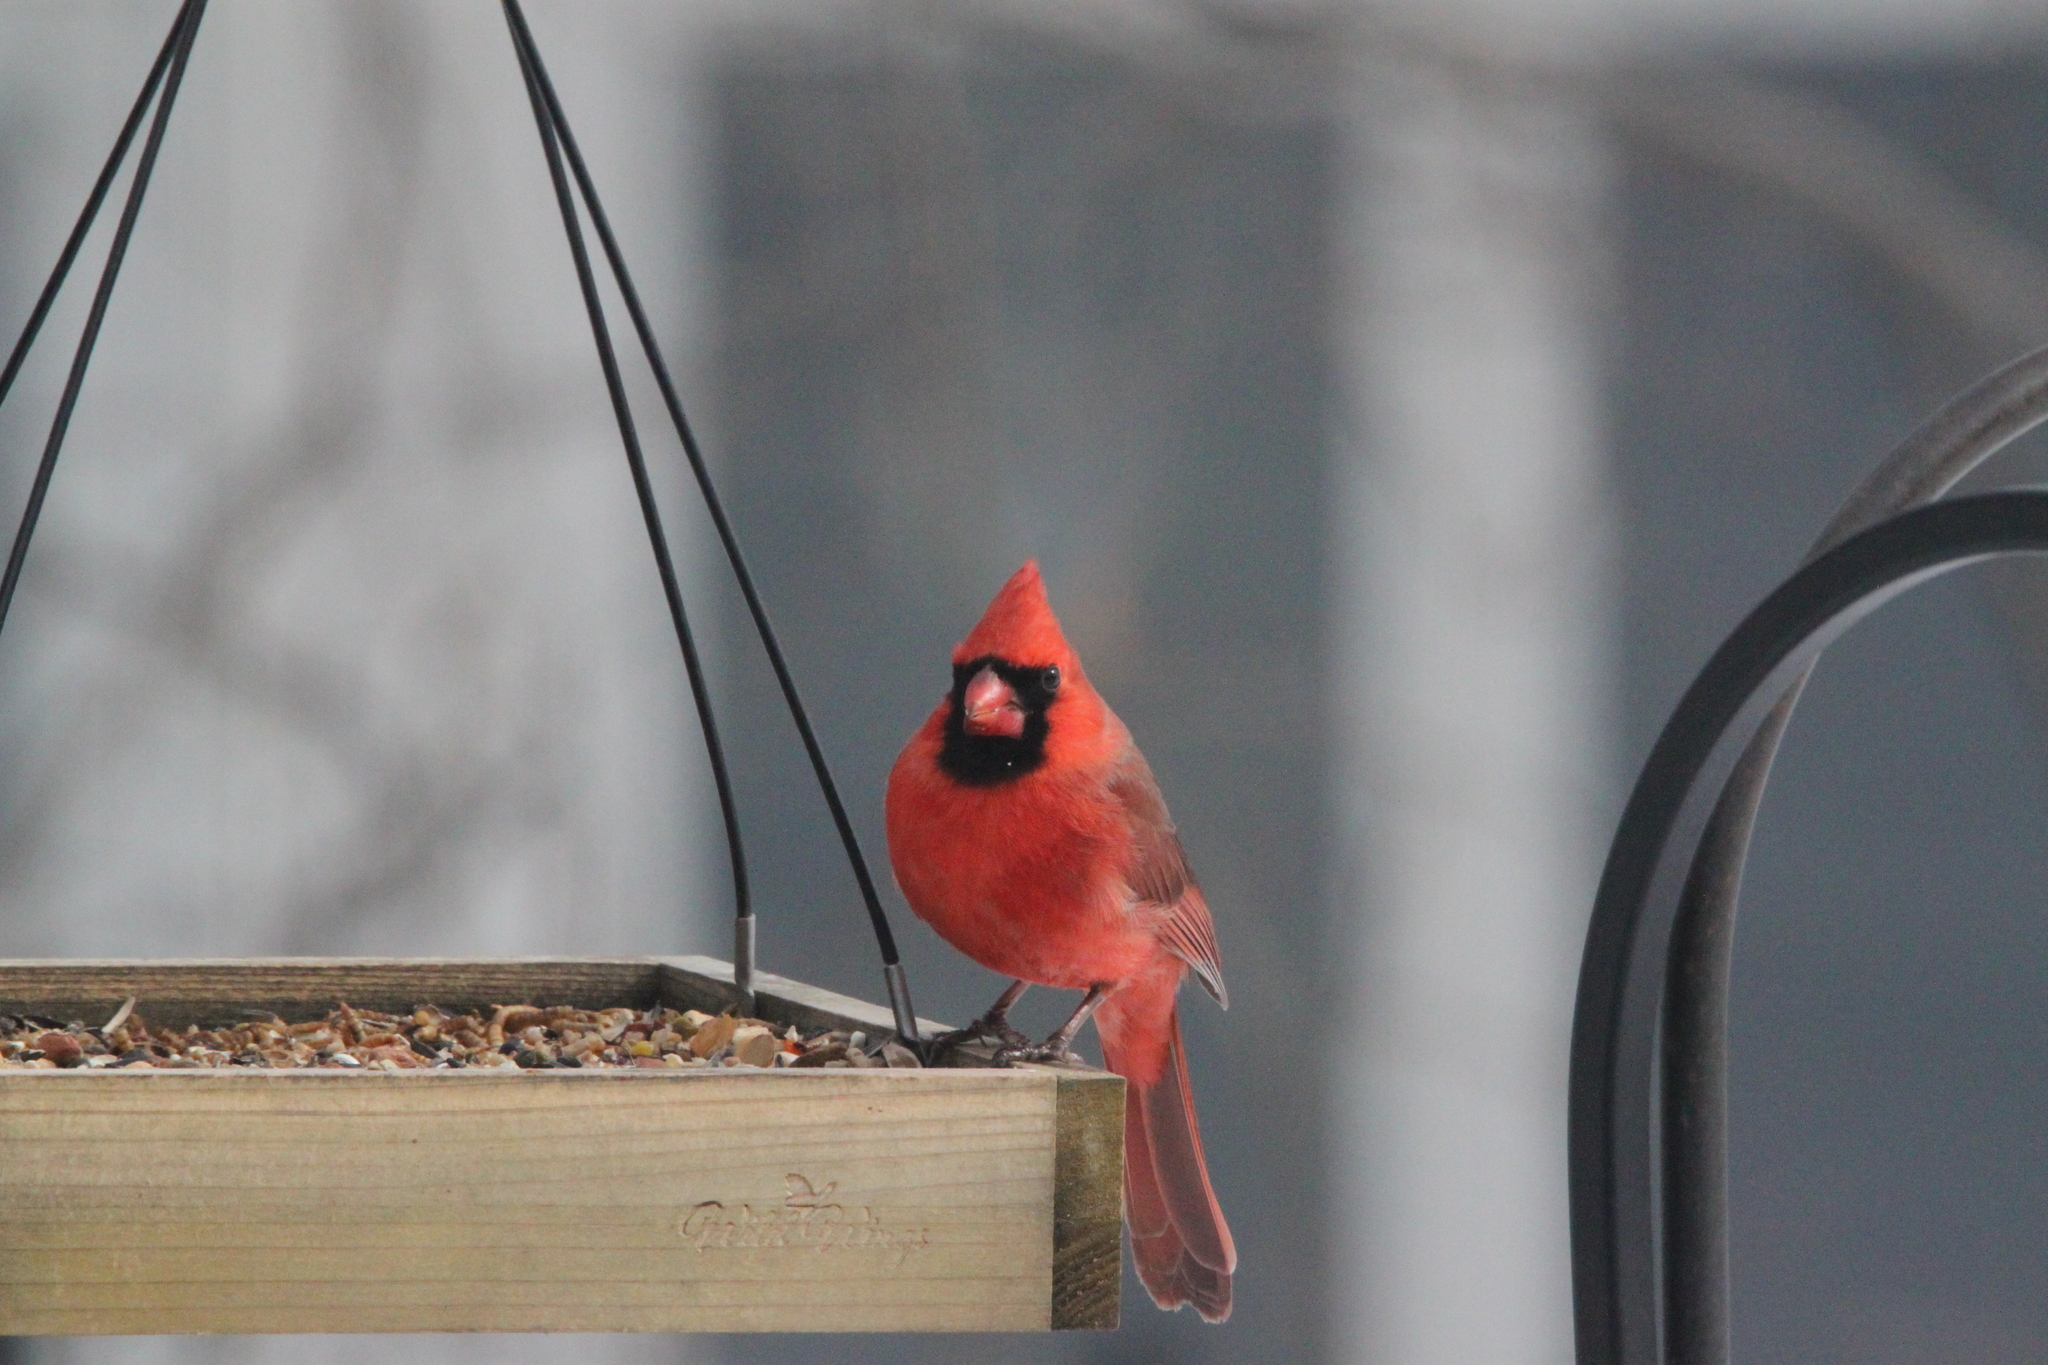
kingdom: Animalia
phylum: Chordata
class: Aves
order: Passeriformes
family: Cardinalidae
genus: Cardinalis
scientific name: Cardinalis cardinalis
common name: Northern cardinal
